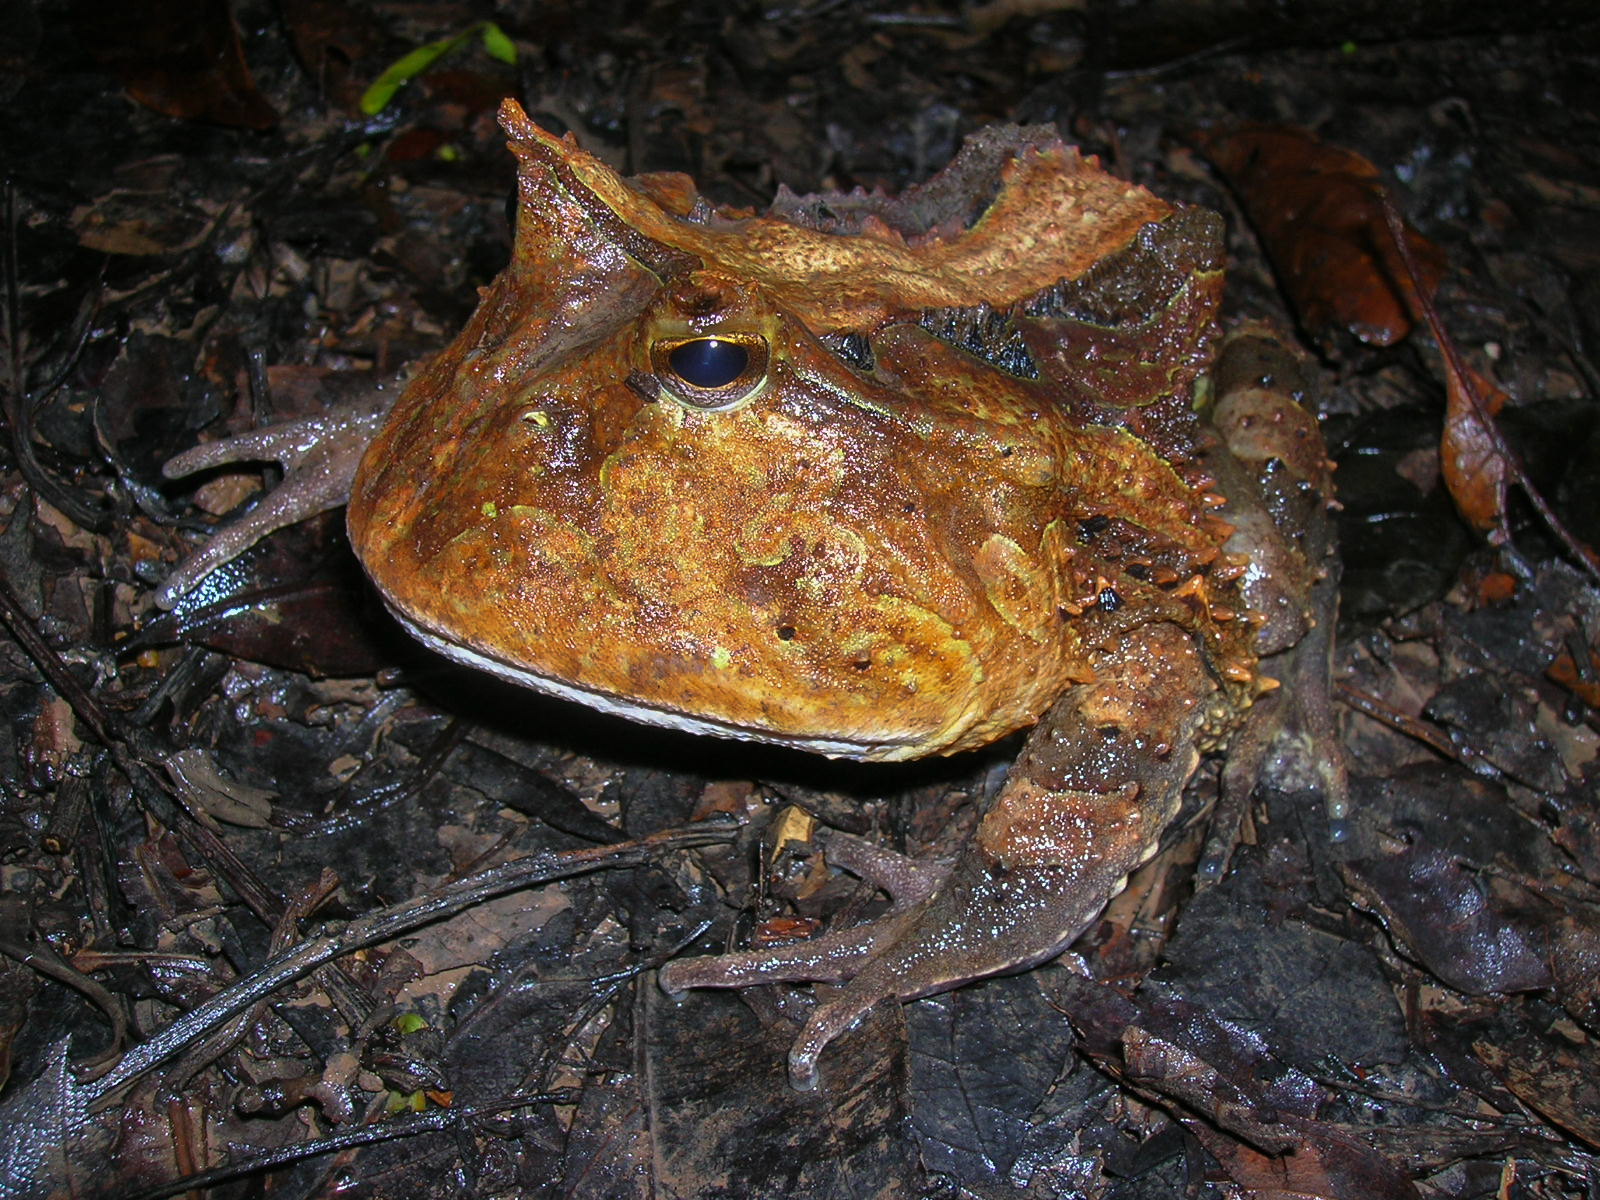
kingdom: Animalia
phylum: Chordata
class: Amphibia
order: Anura
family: Ceratophryidae
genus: Ceratophrys
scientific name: Ceratophrys cornuta
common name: Amazonian horned frog
